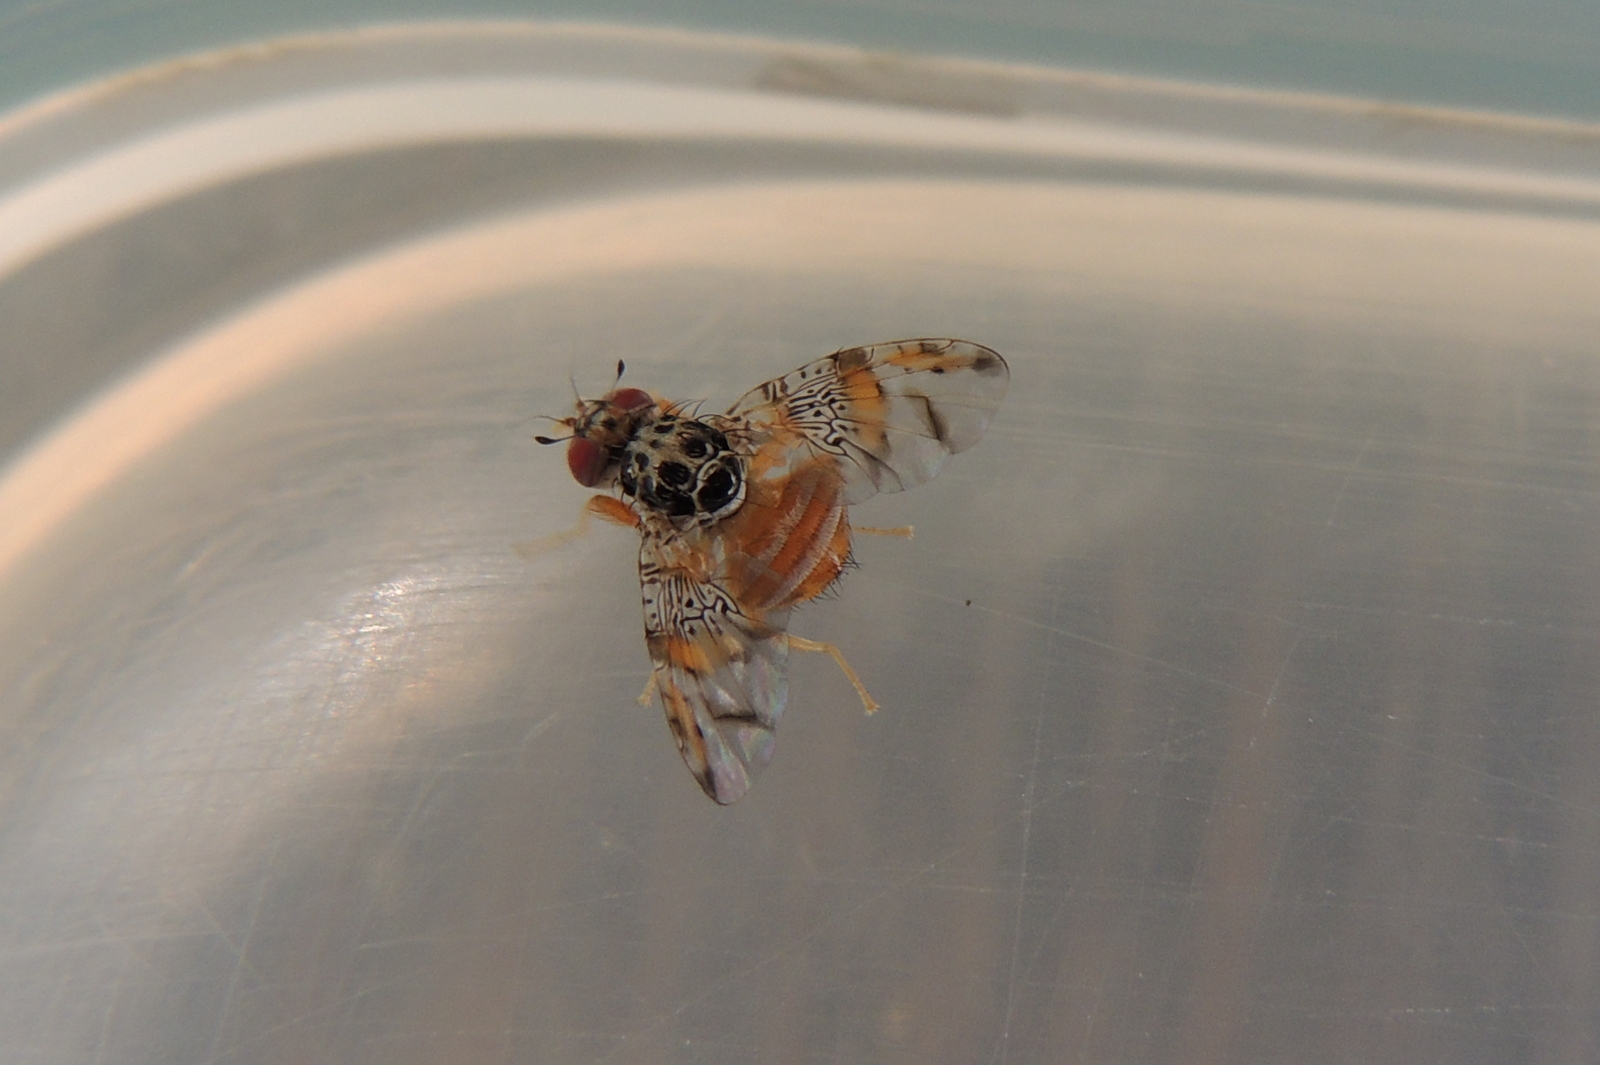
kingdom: Animalia
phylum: Arthropoda
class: Insecta
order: Diptera
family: Tephritidae
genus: Ceratitis
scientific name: Ceratitis capitata
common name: Mediterranean fruit fly
